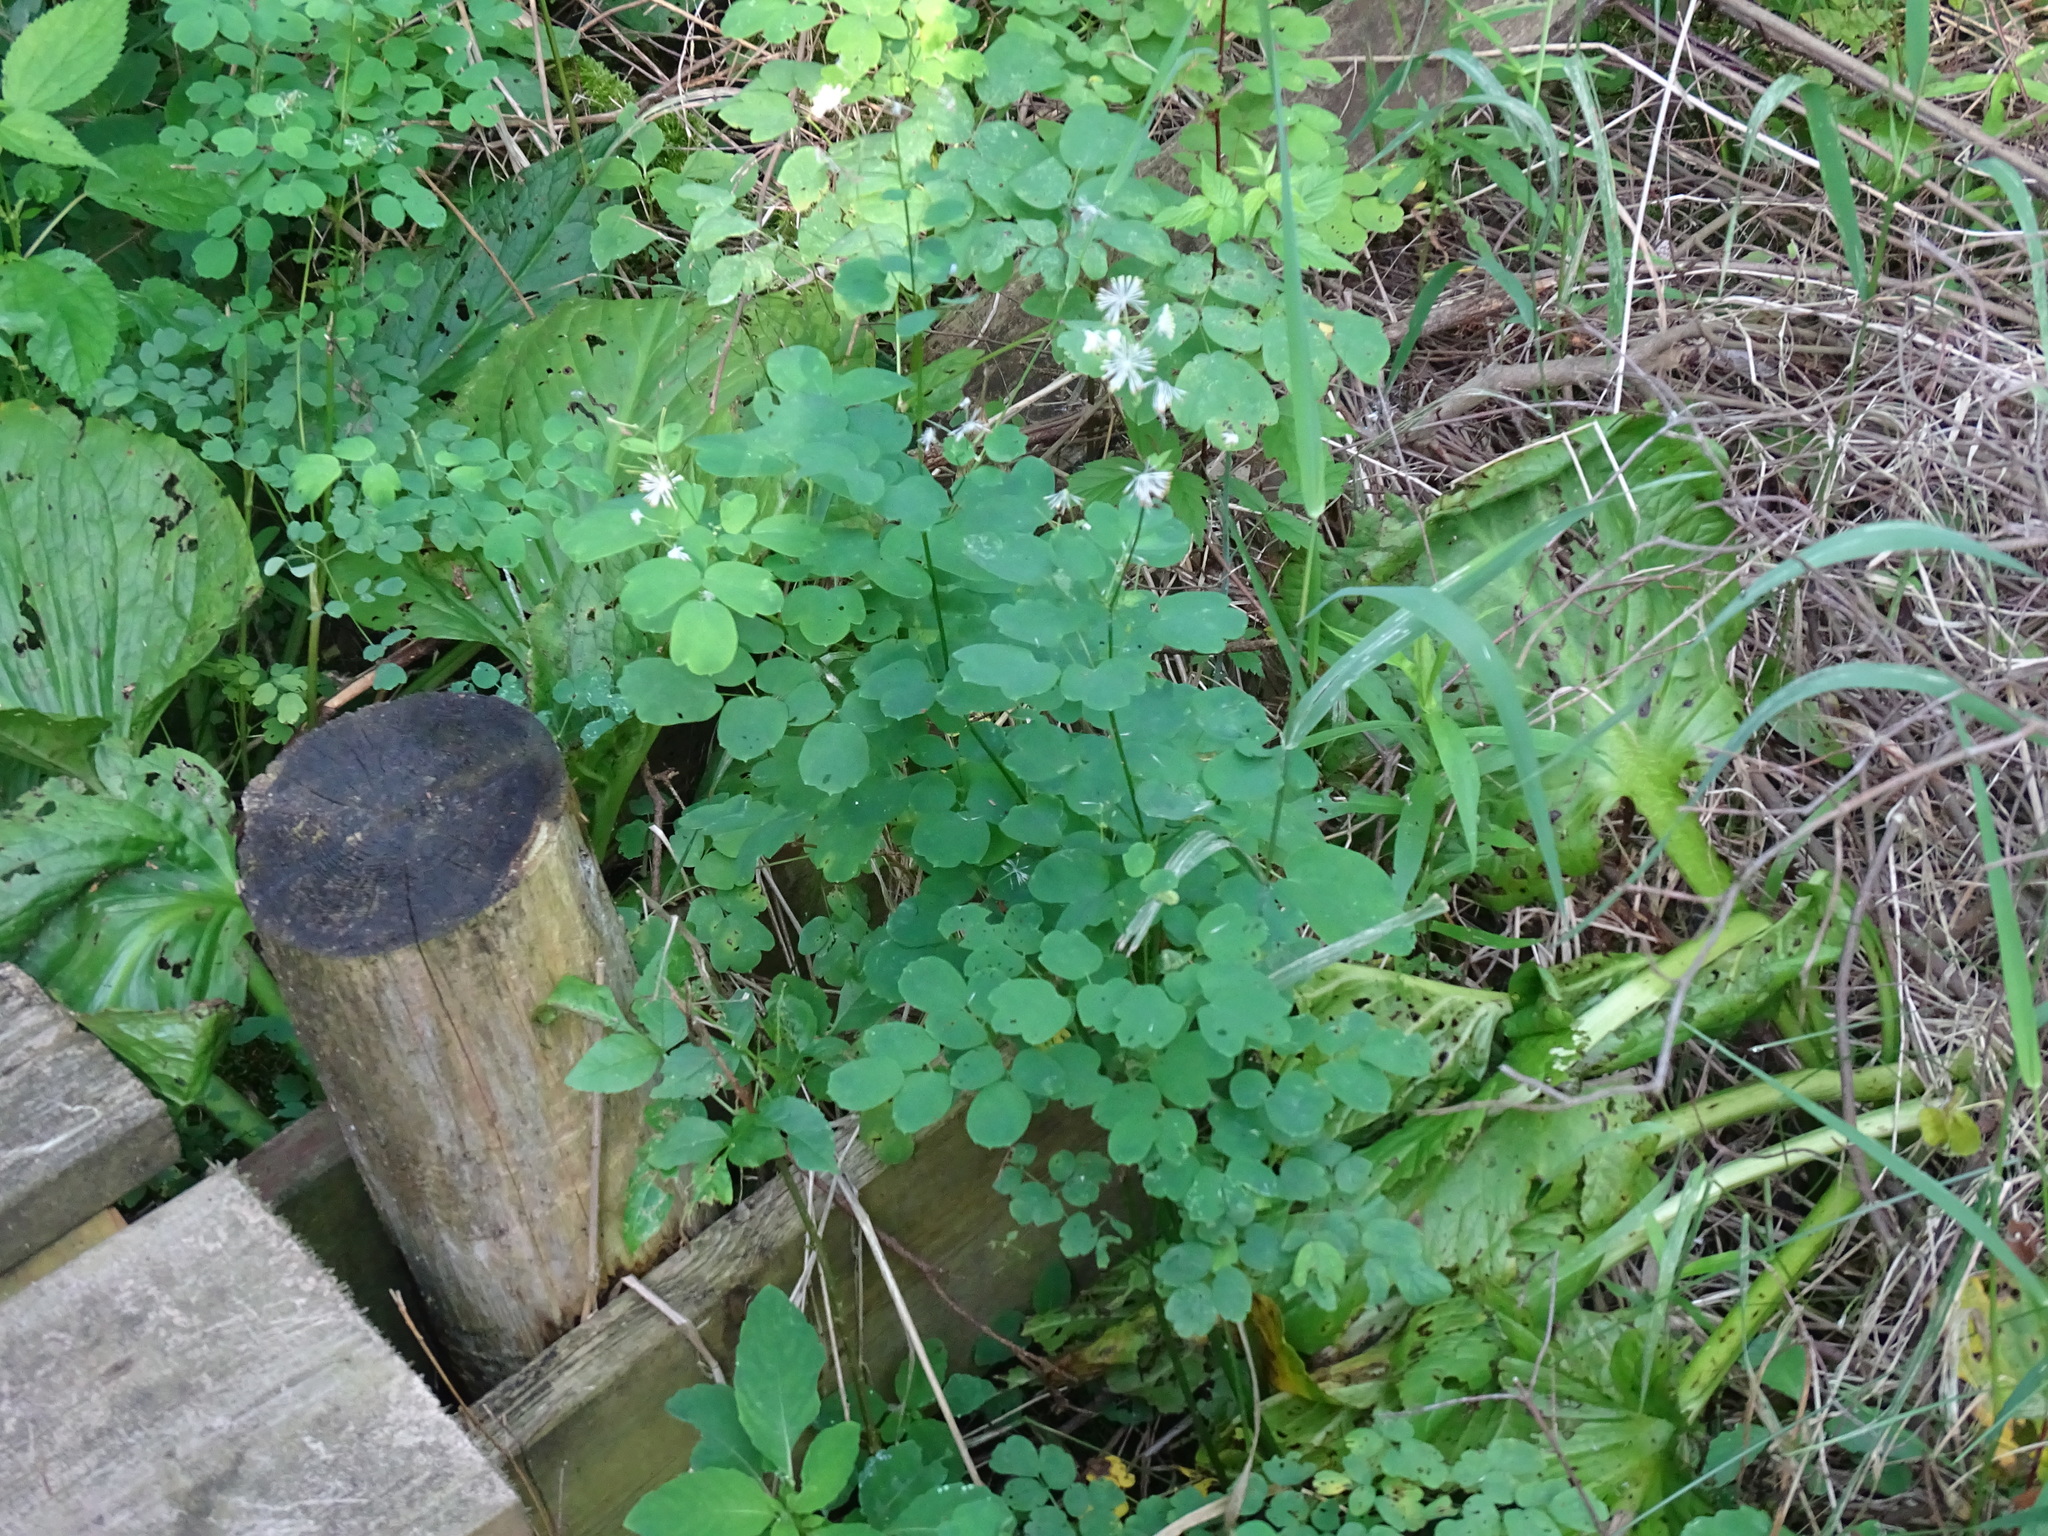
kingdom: Plantae
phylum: Tracheophyta
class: Magnoliopsida
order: Ranunculales
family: Ranunculaceae
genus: Thalictrum
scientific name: Thalictrum pubescens
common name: King-of-the-meadow
